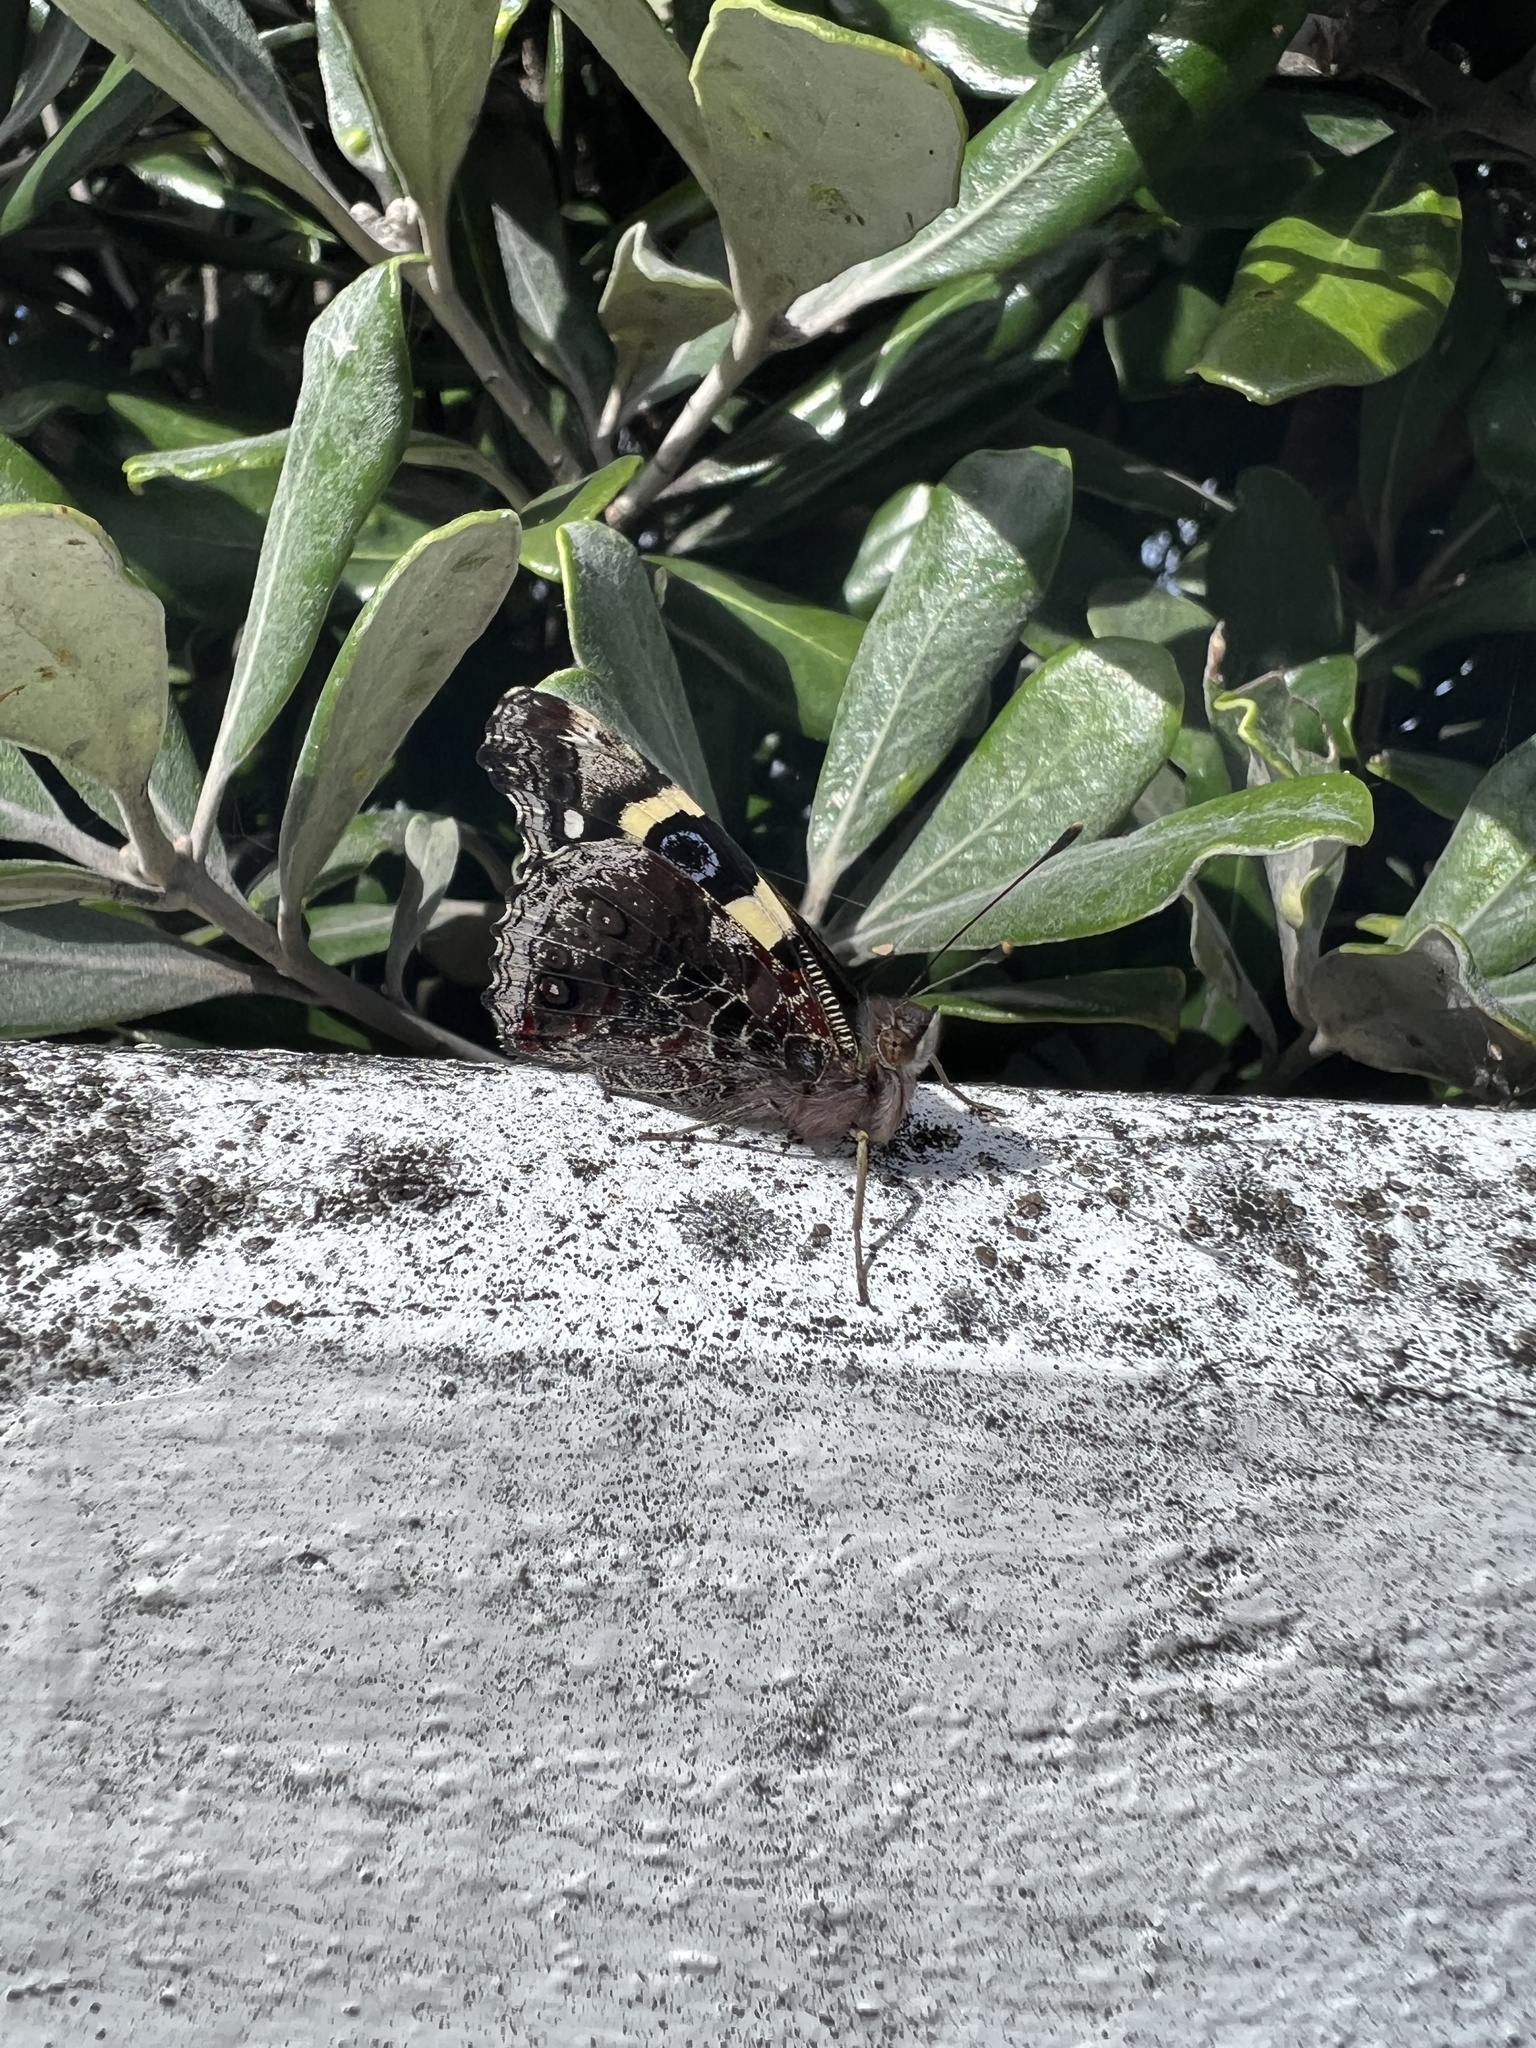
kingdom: Animalia
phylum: Arthropoda
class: Insecta
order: Lepidoptera
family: Nymphalidae
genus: Vanessa
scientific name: Vanessa itea
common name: Yellow admiral
